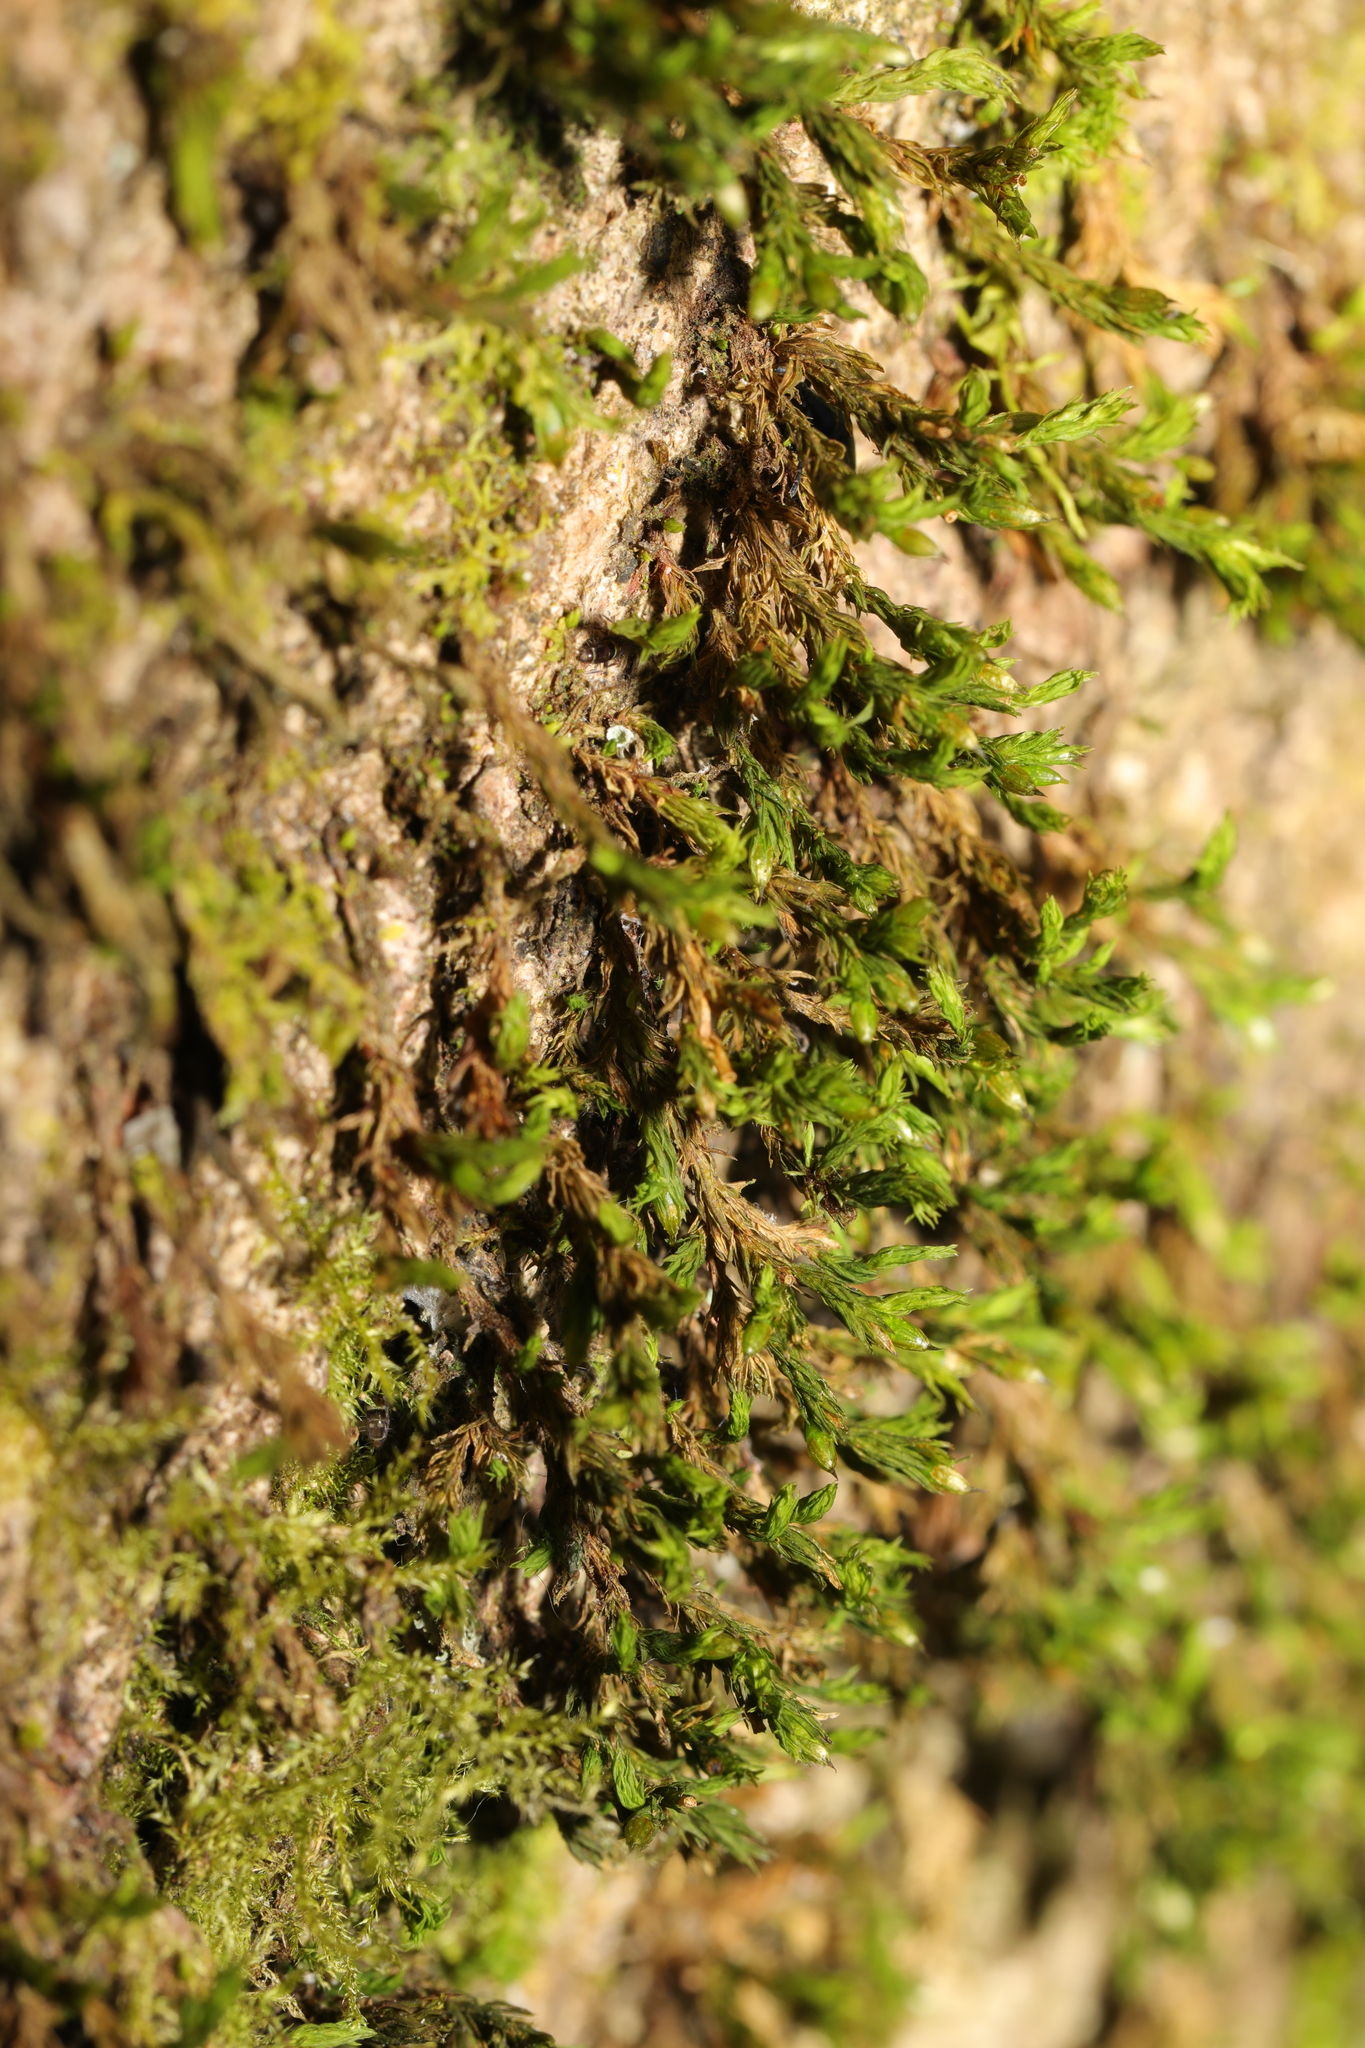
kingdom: Plantae
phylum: Bryophyta
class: Bryopsida
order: Hypnales
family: Cryphaeaceae
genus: Cryphaea
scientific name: Cryphaea heteromalla
